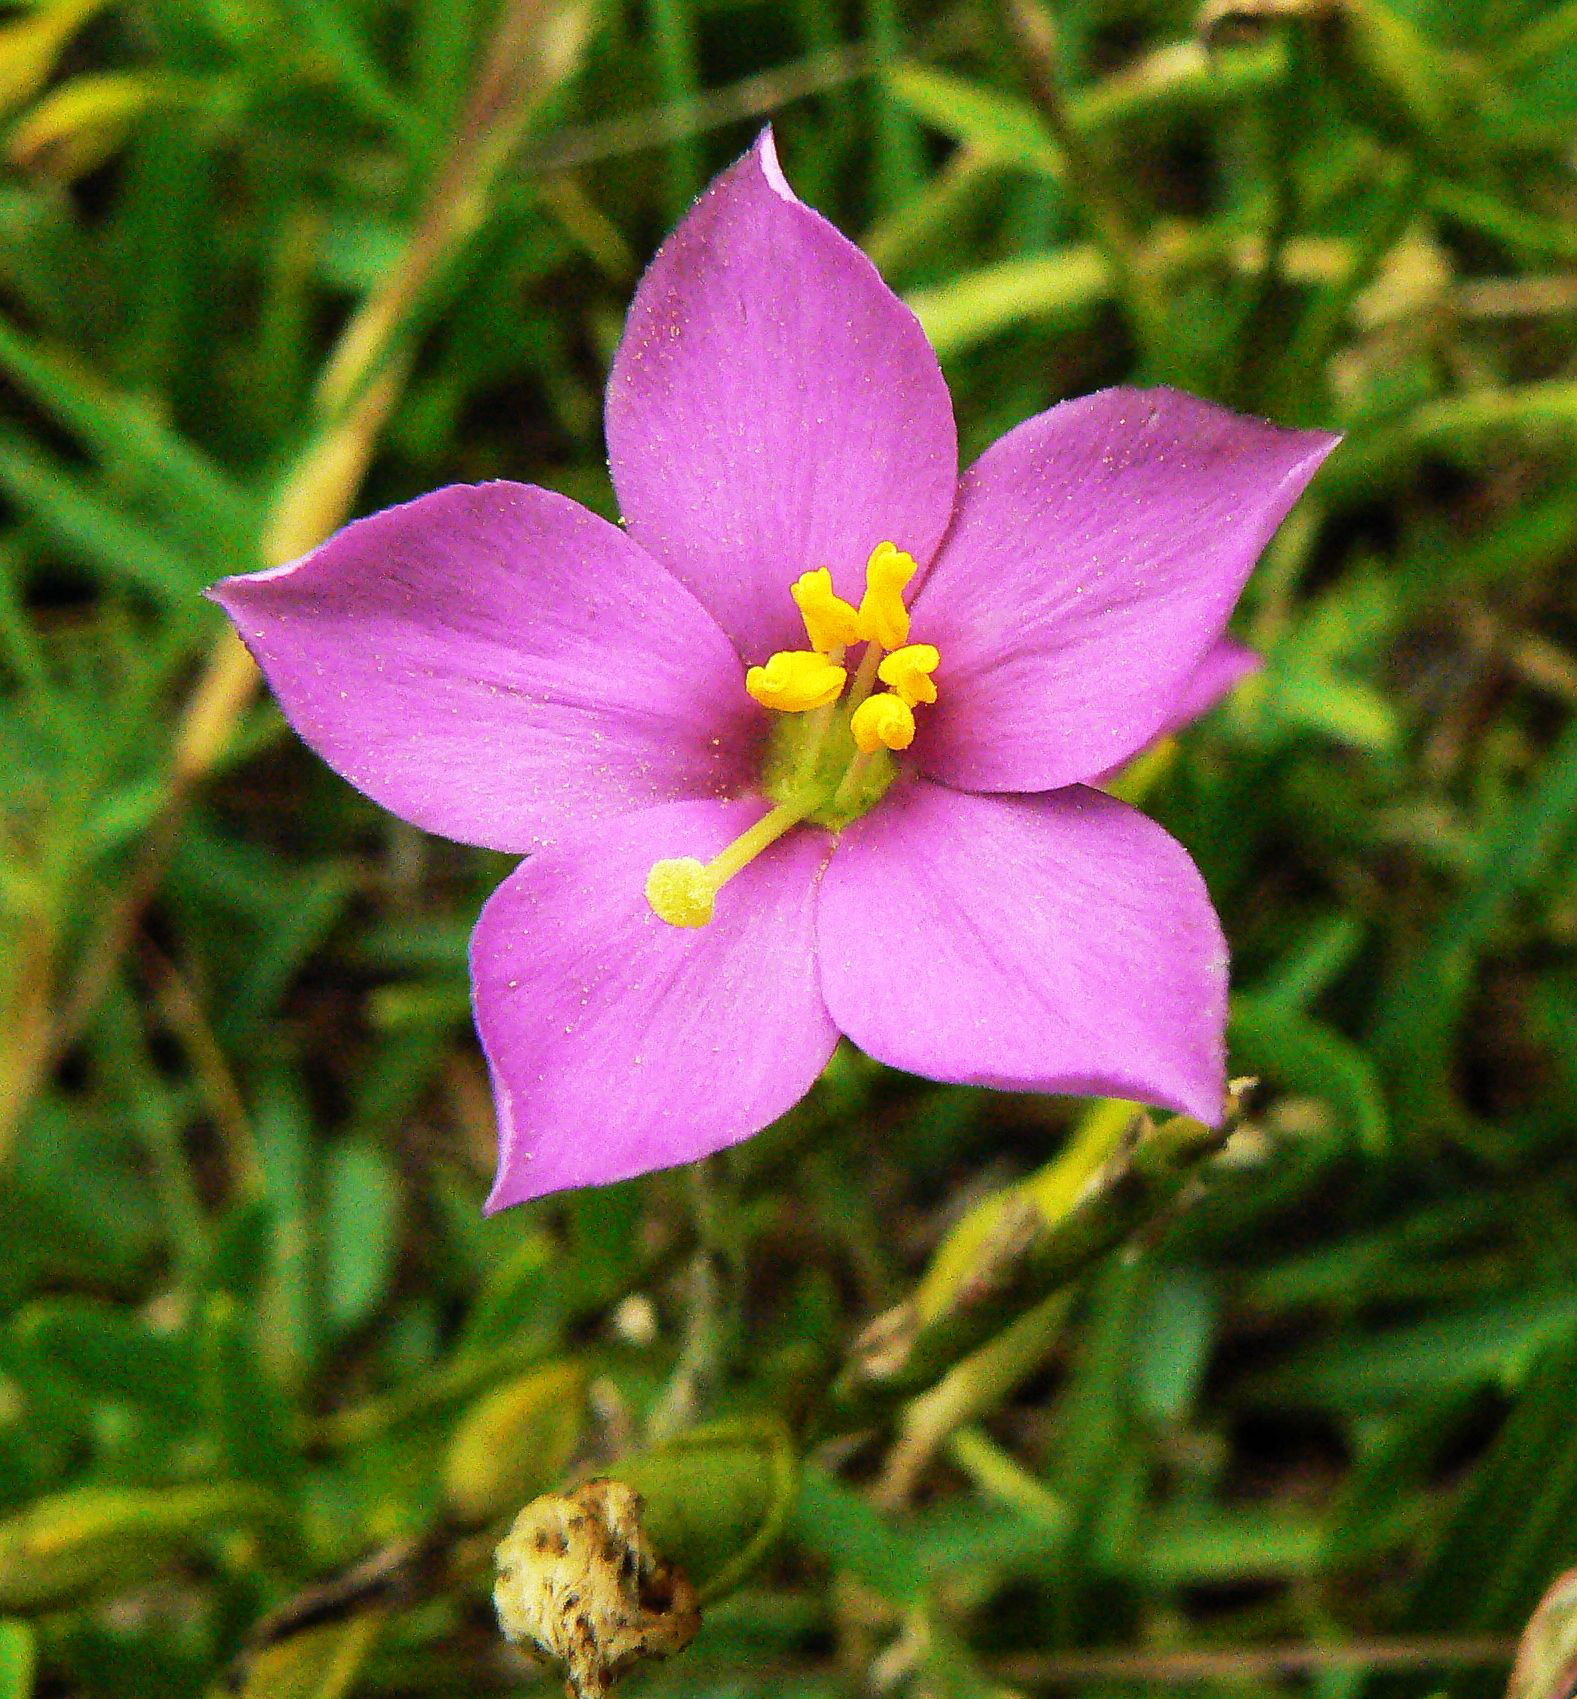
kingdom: Plantae
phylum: Tracheophyta
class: Magnoliopsida
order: Gentianales
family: Gentianaceae
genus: Chironia
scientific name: Chironia melampyrifolia
